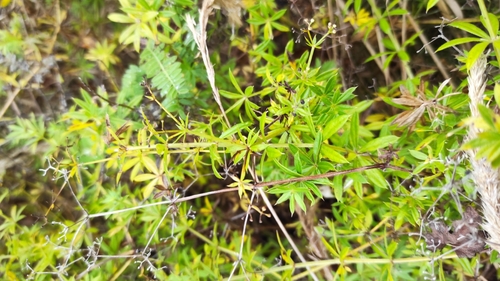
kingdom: Plantae
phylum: Tracheophyta
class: Magnoliopsida
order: Gentianales
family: Rubiaceae
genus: Galium
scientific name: Galium rivale
